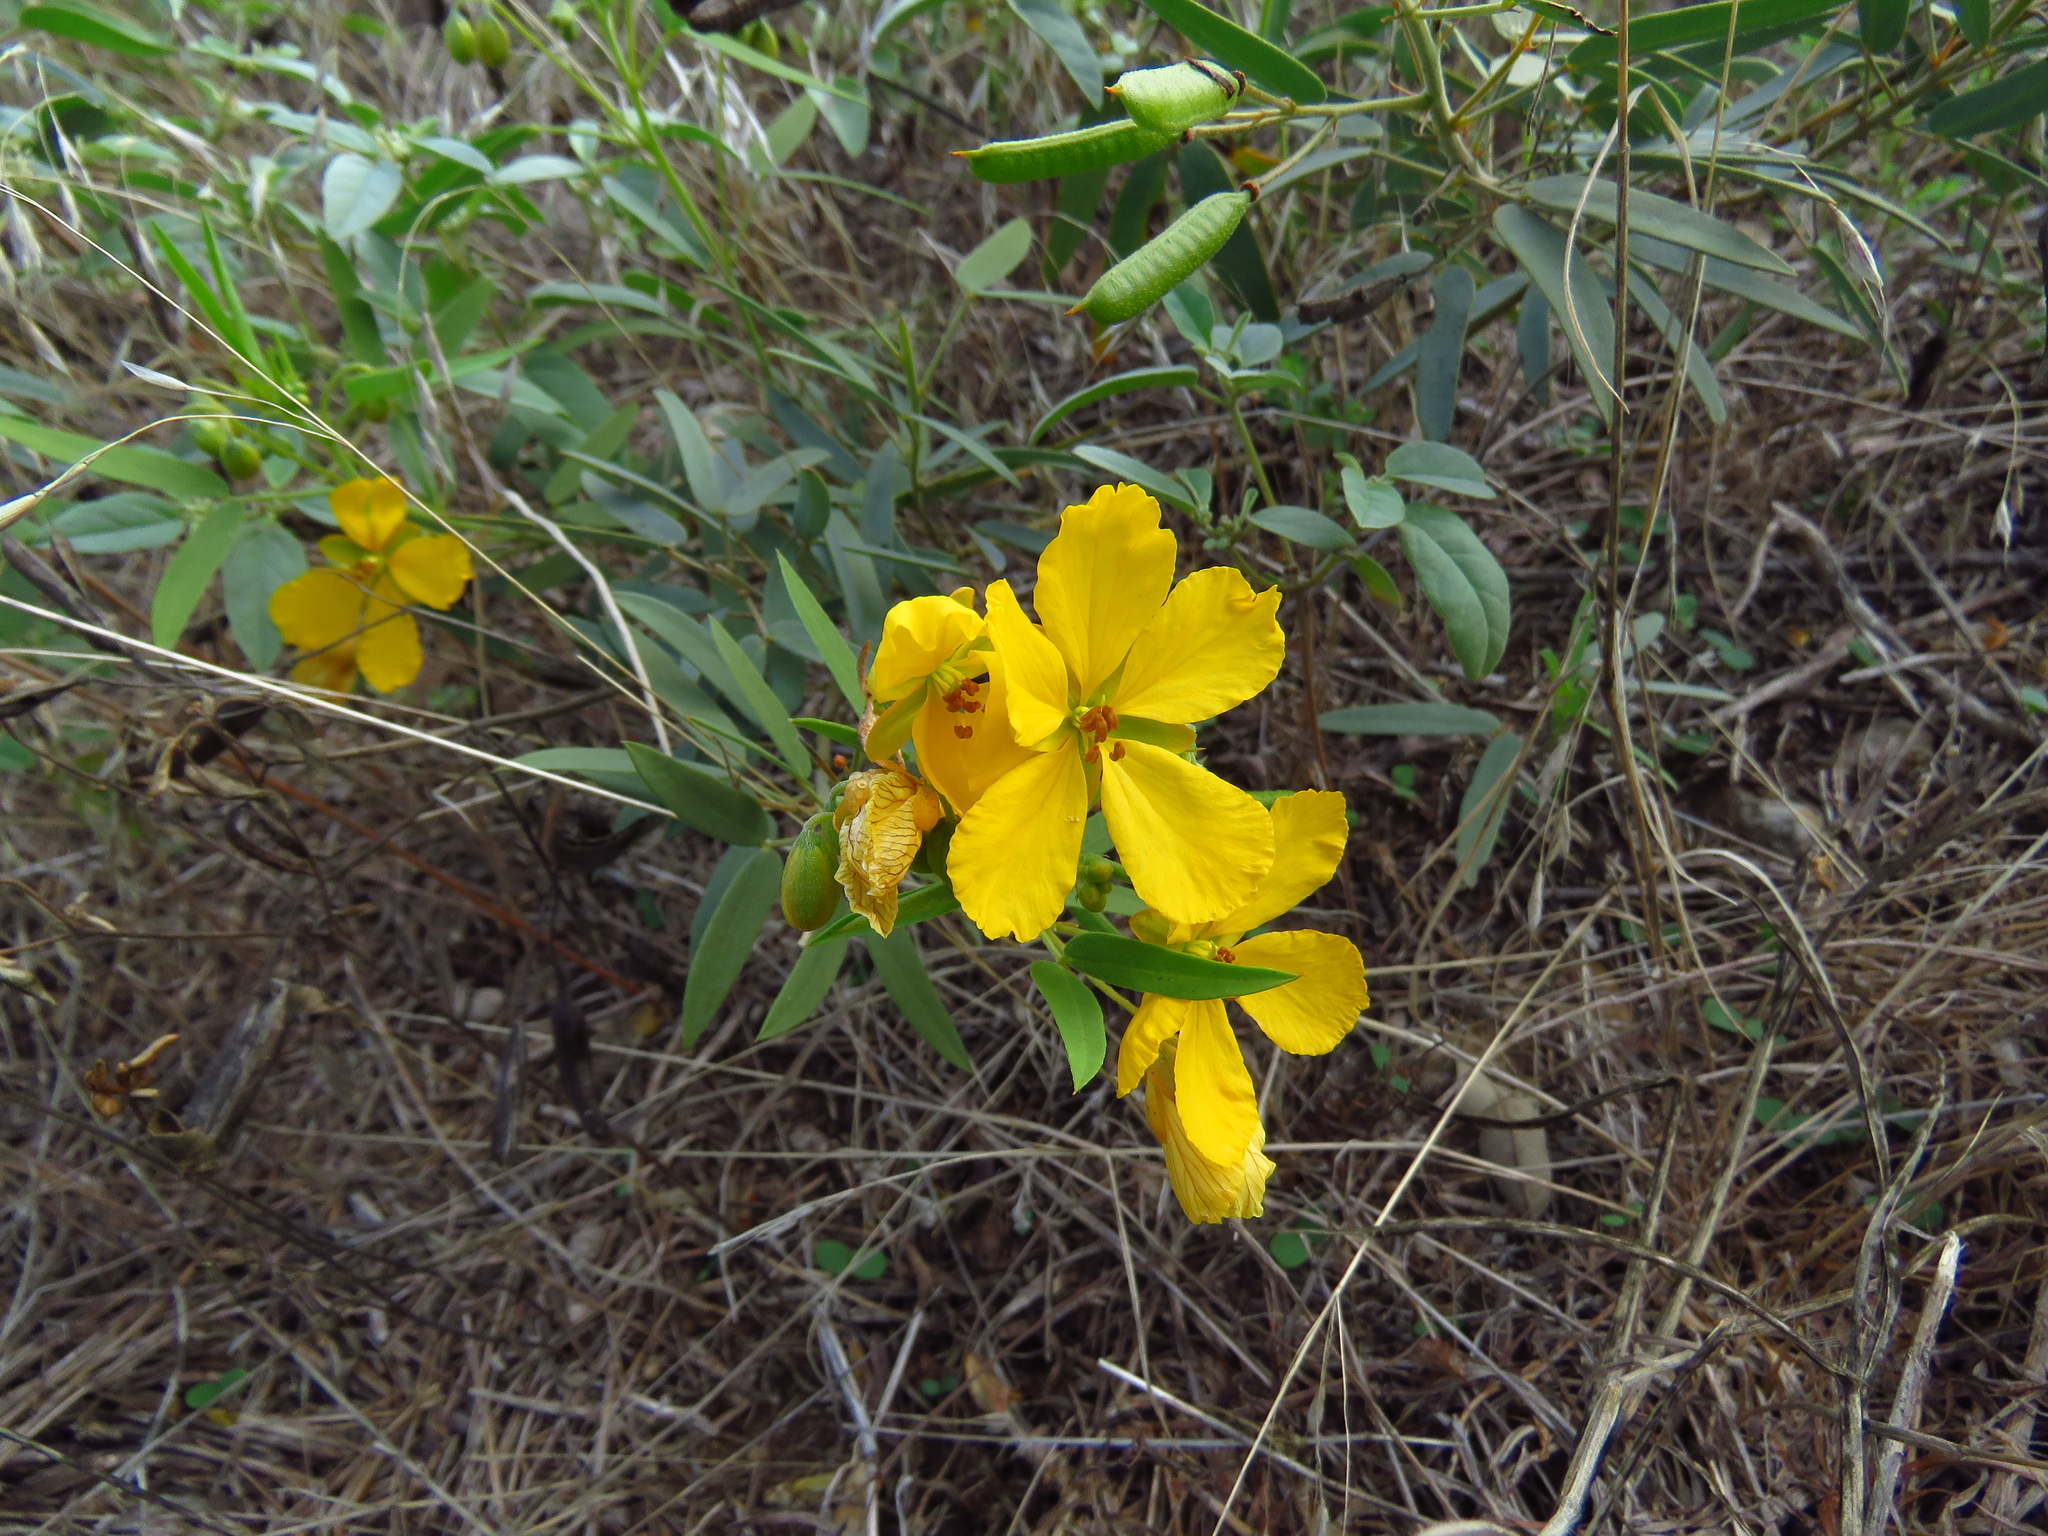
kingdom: Plantae
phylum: Tracheophyta
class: Magnoliopsida
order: Fabales
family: Fabaceae
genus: Senna
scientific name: Senna roemeriana
